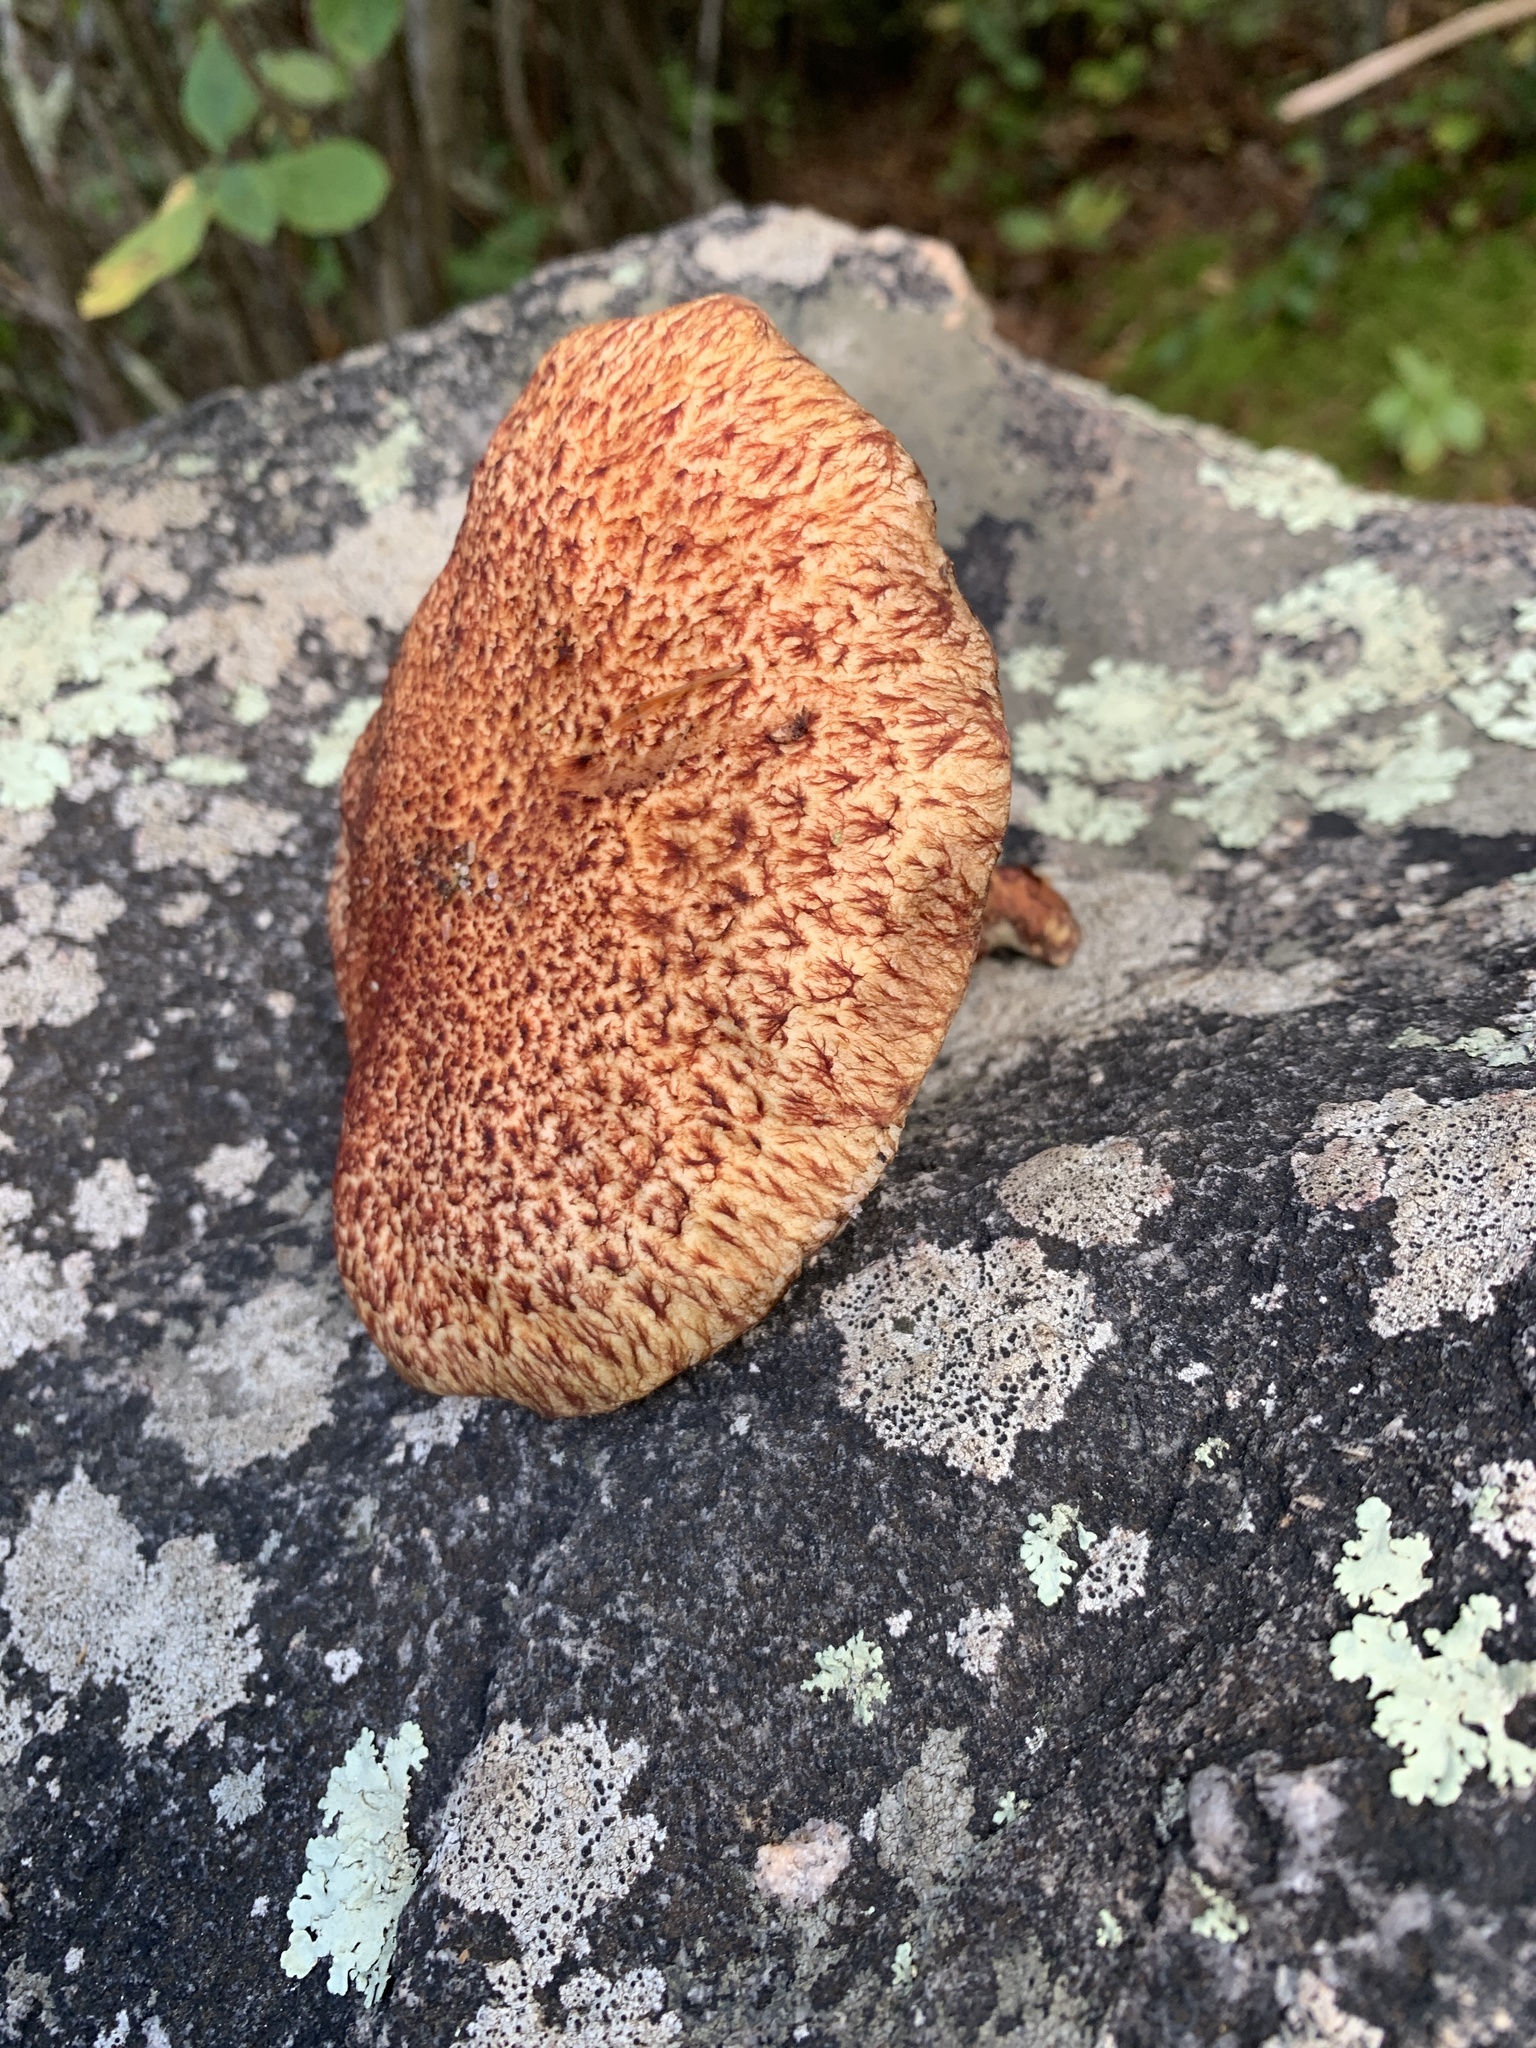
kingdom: Fungi
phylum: Basidiomycota
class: Agaricomycetes
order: Boletales
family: Suillaceae
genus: Suillus
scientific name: Suillus spraguei
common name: Painted suillus
